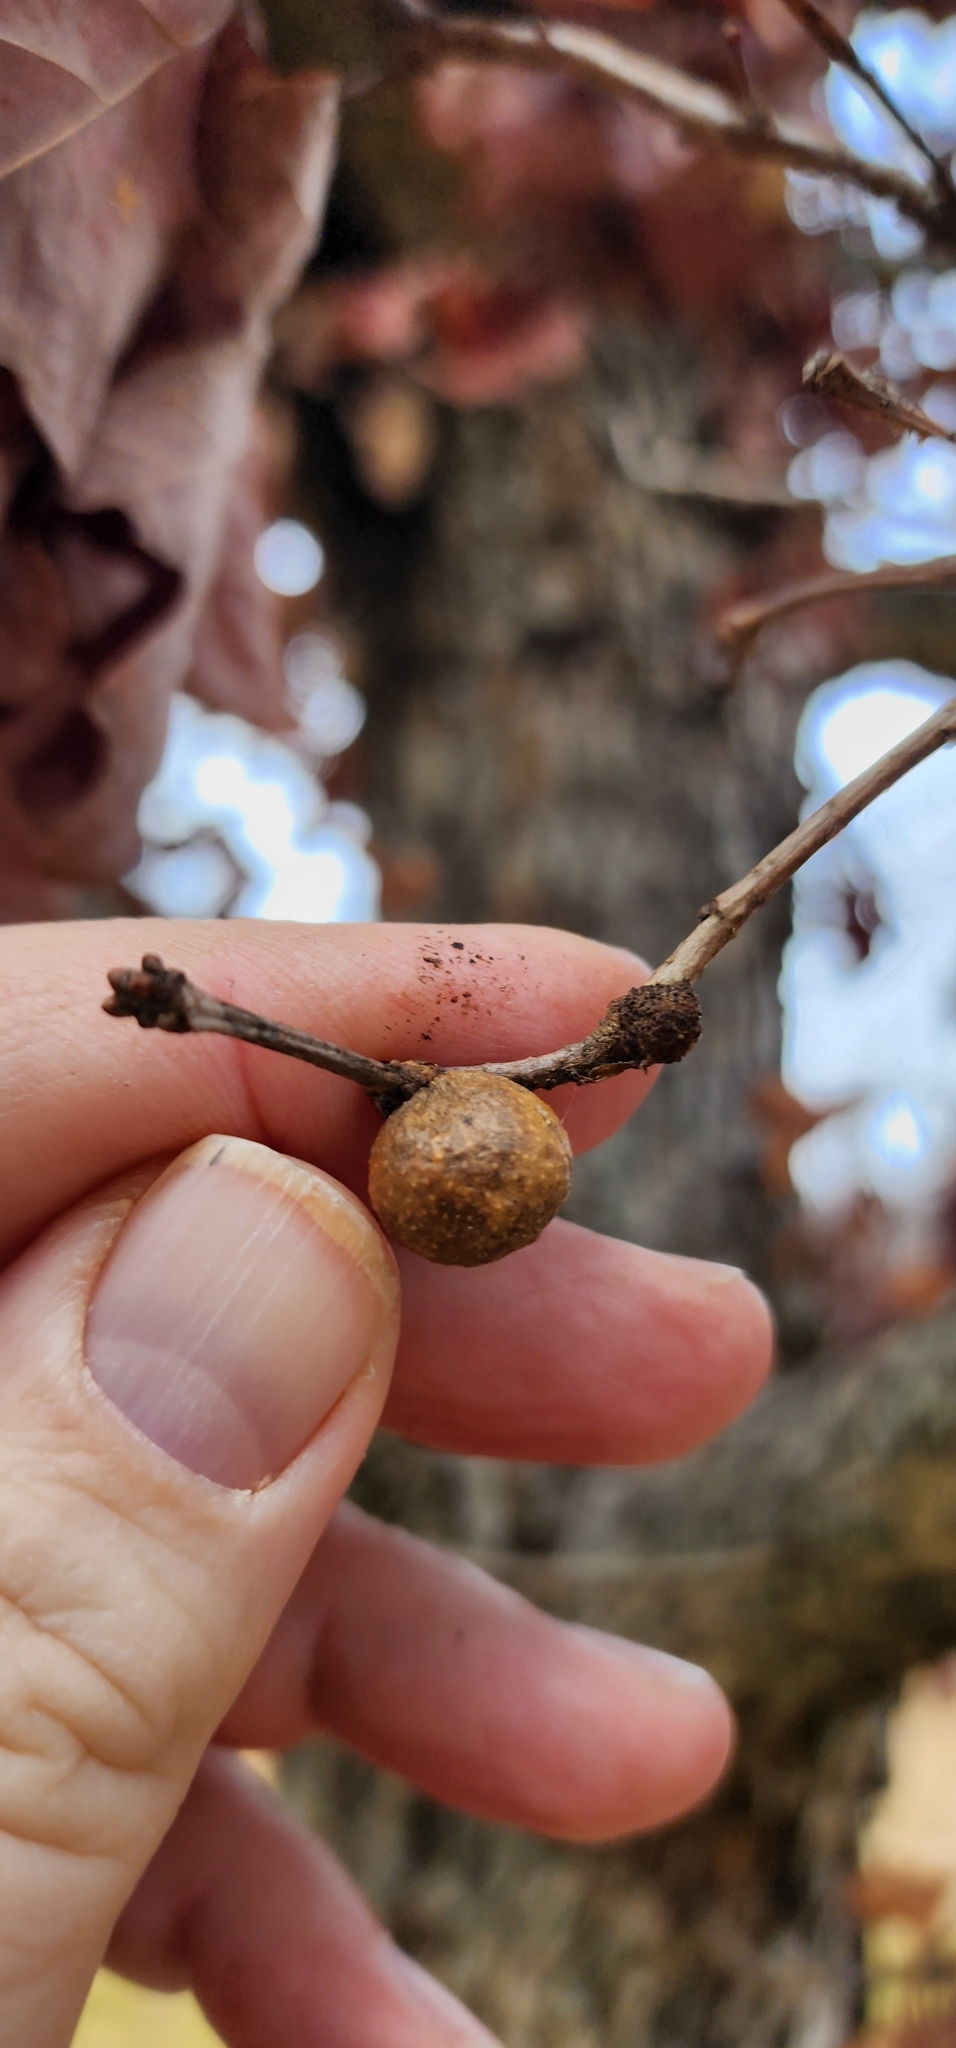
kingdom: Animalia
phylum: Arthropoda
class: Insecta
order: Hymenoptera
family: Cynipidae
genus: Disholcaspis
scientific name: Disholcaspis quercusglobulus
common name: Round bullet gall wasp
